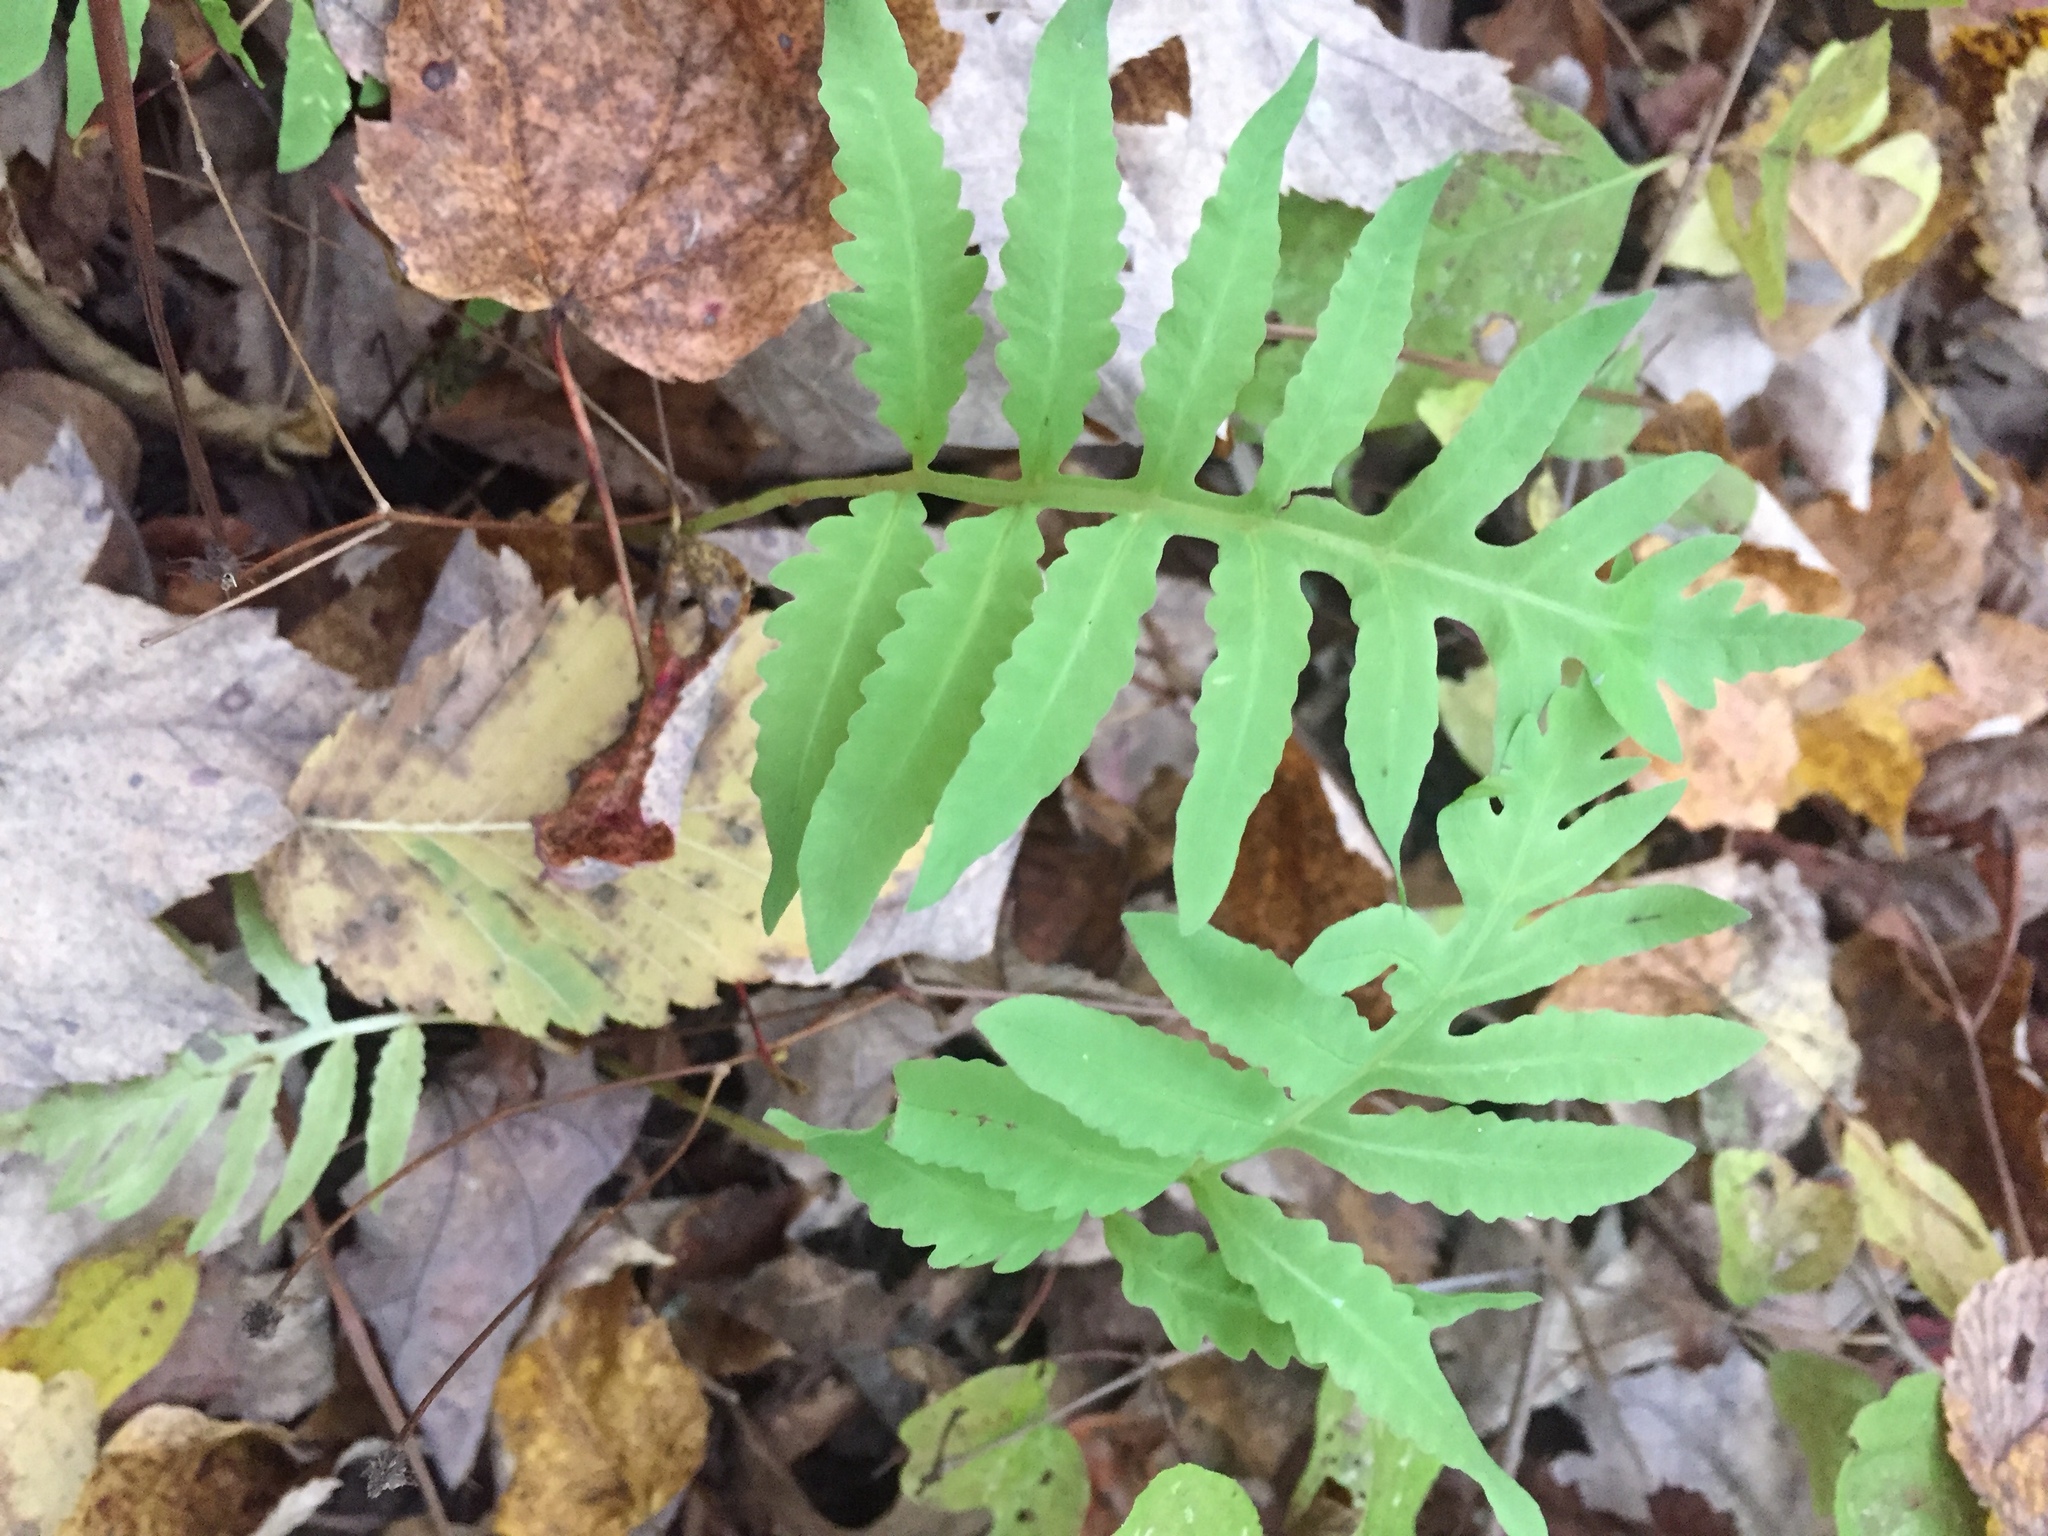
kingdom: Plantae
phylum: Tracheophyta
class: Polypodiopsida
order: Polypodiales
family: Onocleaceae
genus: Onoclea
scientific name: Onoclea sensibilis
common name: Sensitive fern
